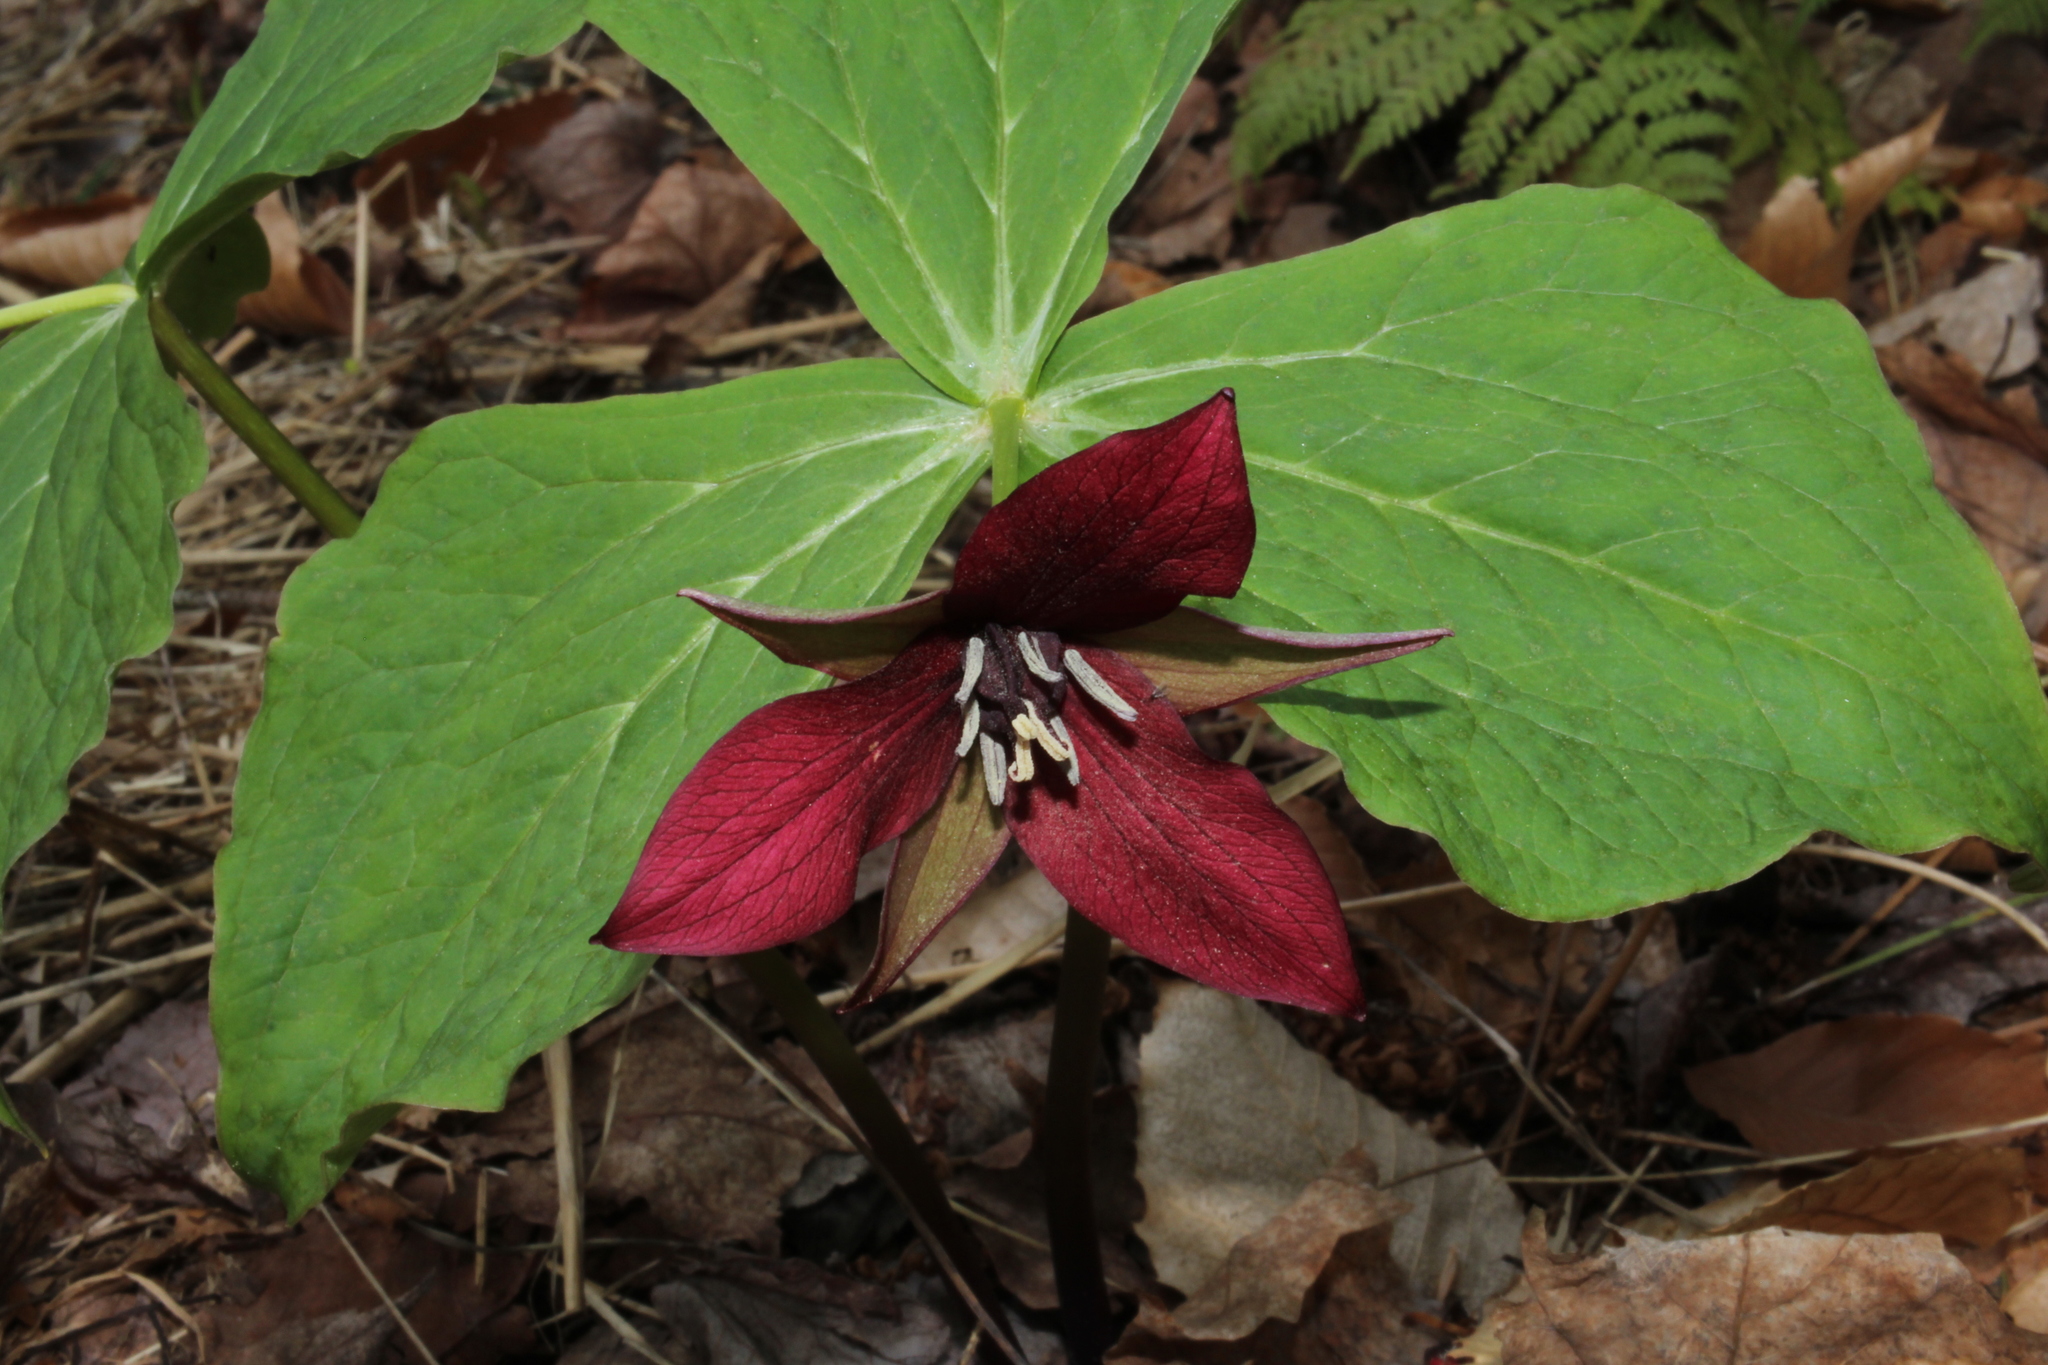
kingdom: Plantae
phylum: Tracheophyta
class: Liliopsida
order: Liliales
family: Melanthiaceae
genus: Trillium
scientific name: Trillium erectum
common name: Purple trillium
